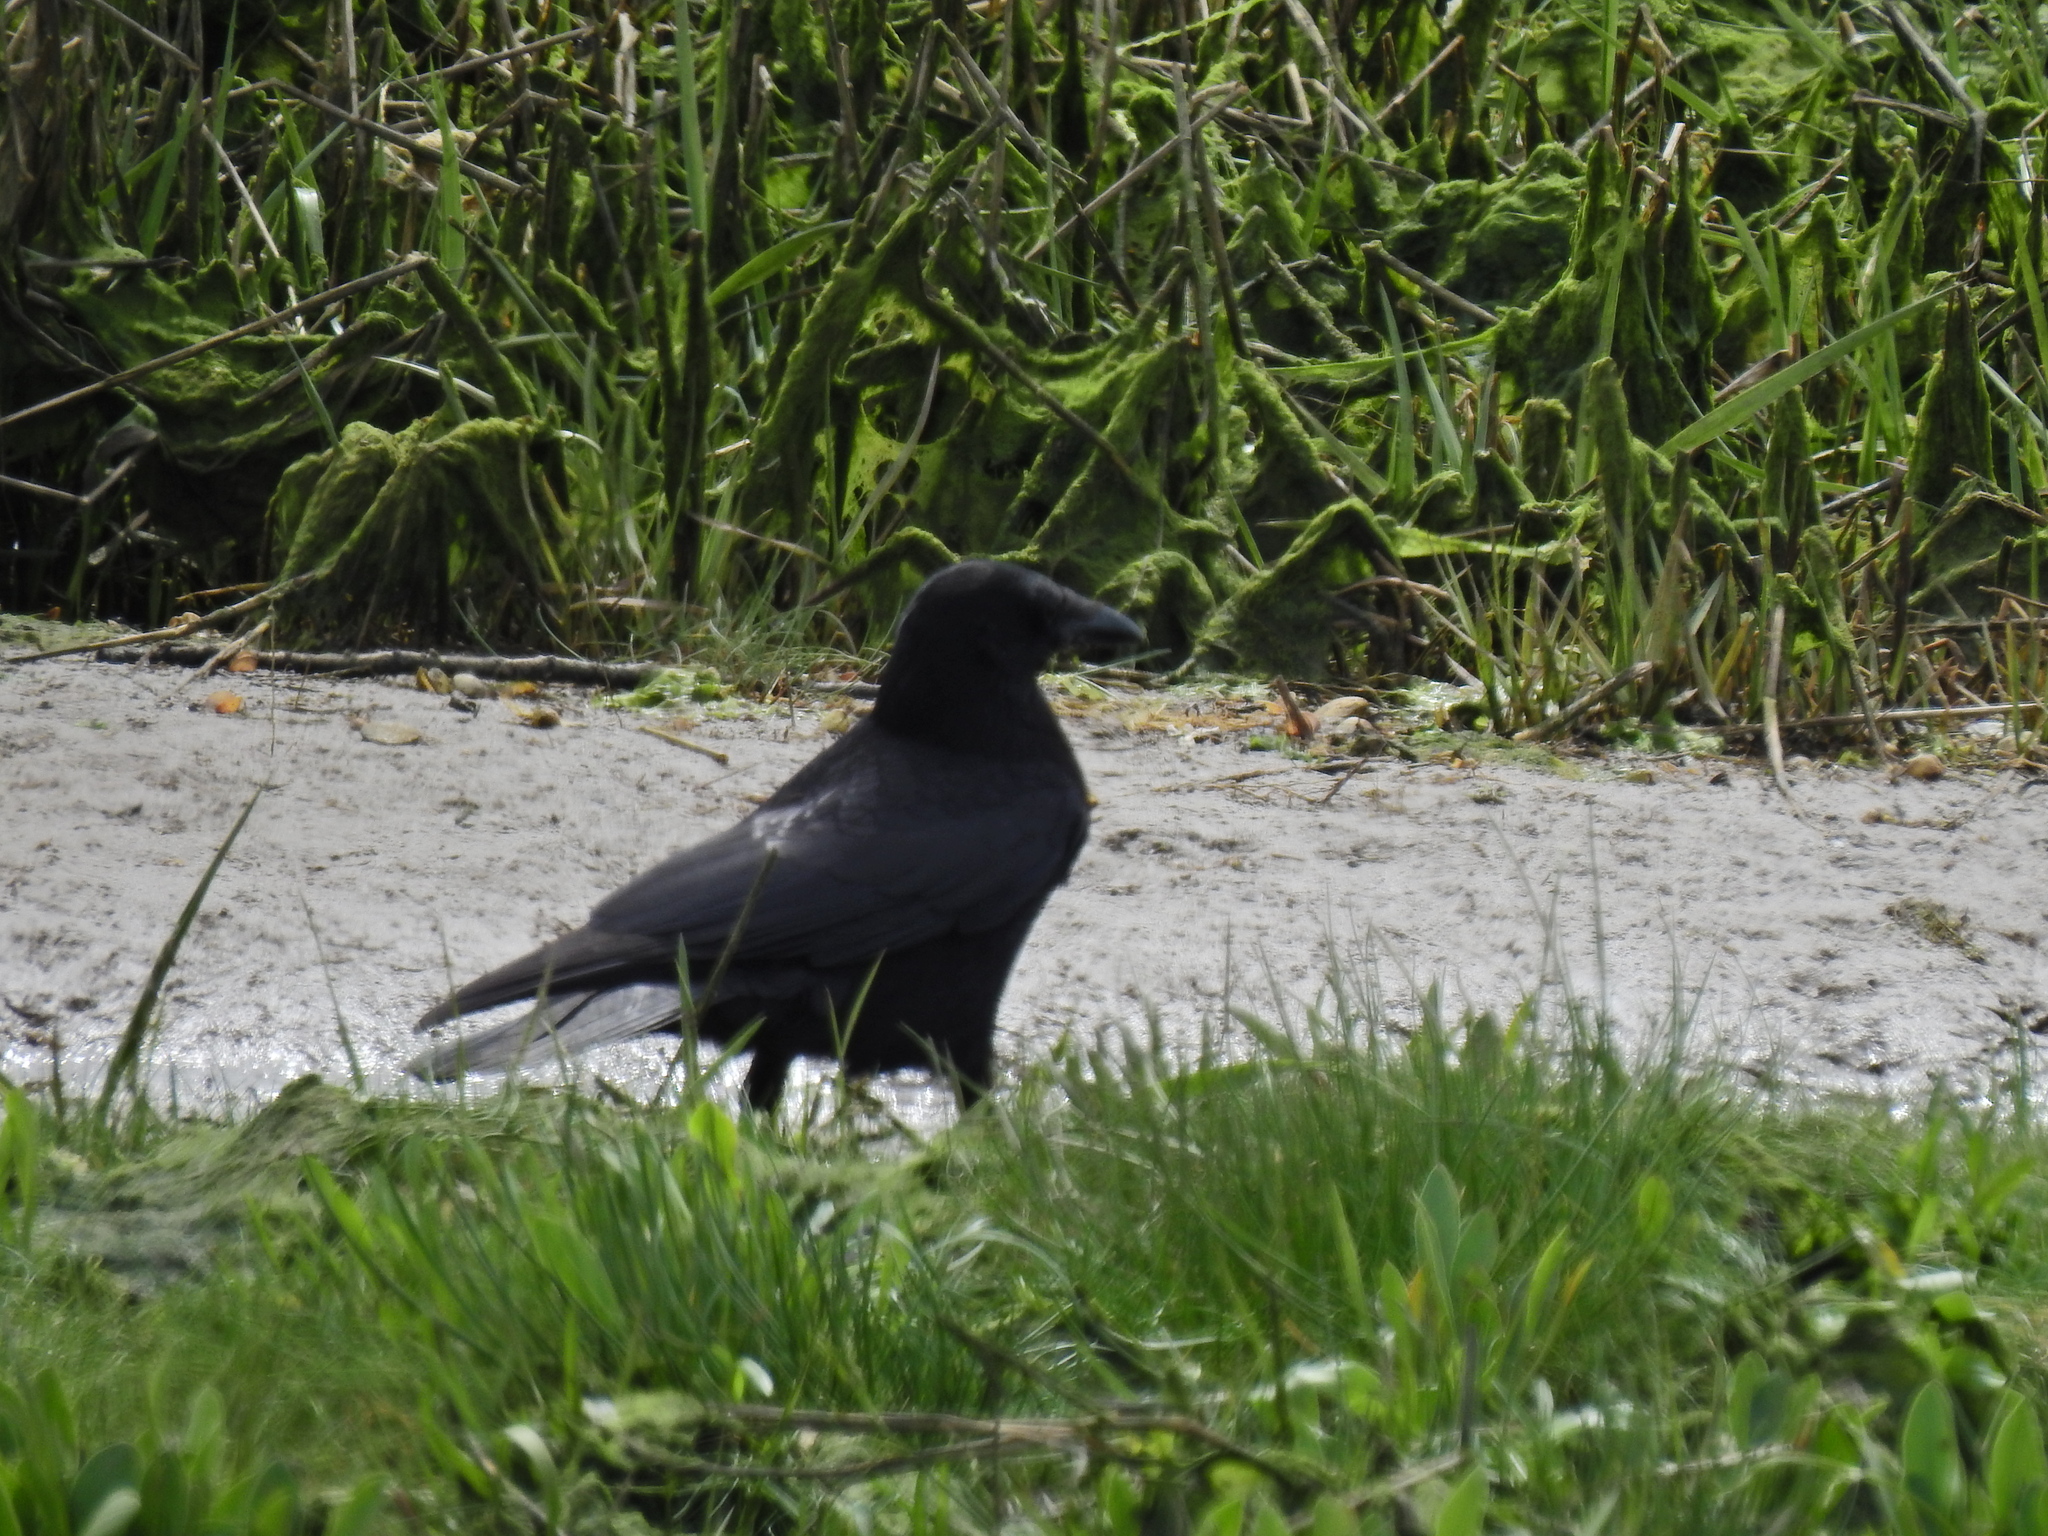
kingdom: Animalia
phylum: Chordata
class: Aves
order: Passeriformes
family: Corvidae
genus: Corvus
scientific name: Corvus corone
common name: Carrion crow
